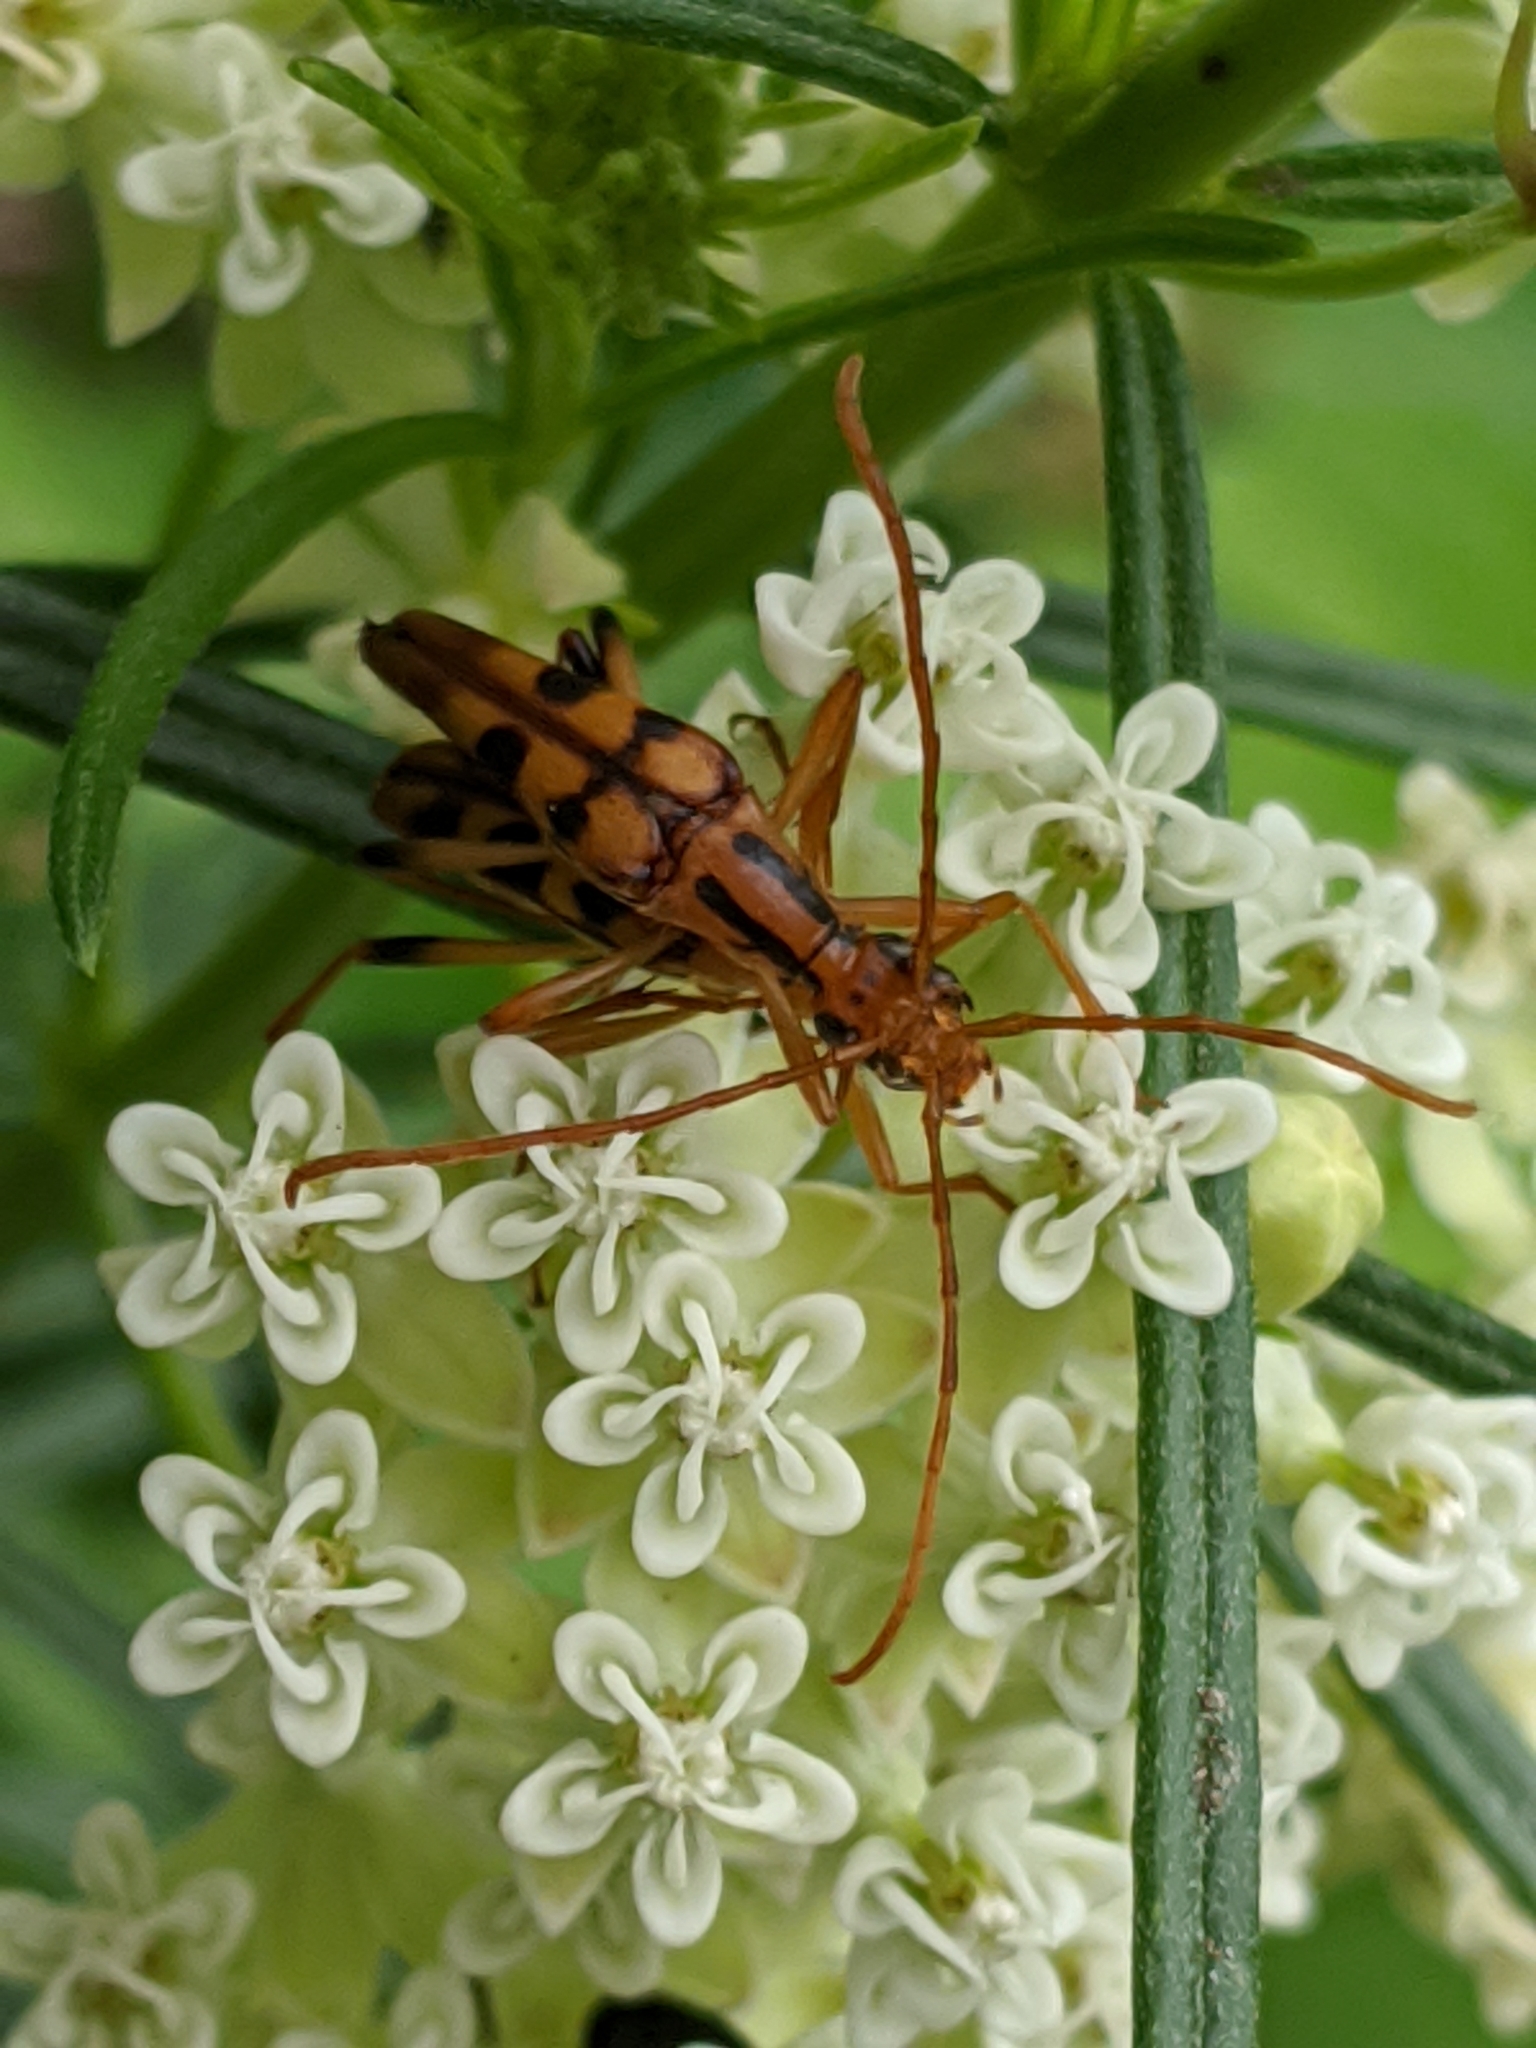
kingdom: Animalia
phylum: Arthropoda
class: Insecta
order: Coleoptera
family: Cerambycidae
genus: Strangalia
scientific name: Strangalia luteicornis
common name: Yellow-horned flower longhorn beetle
